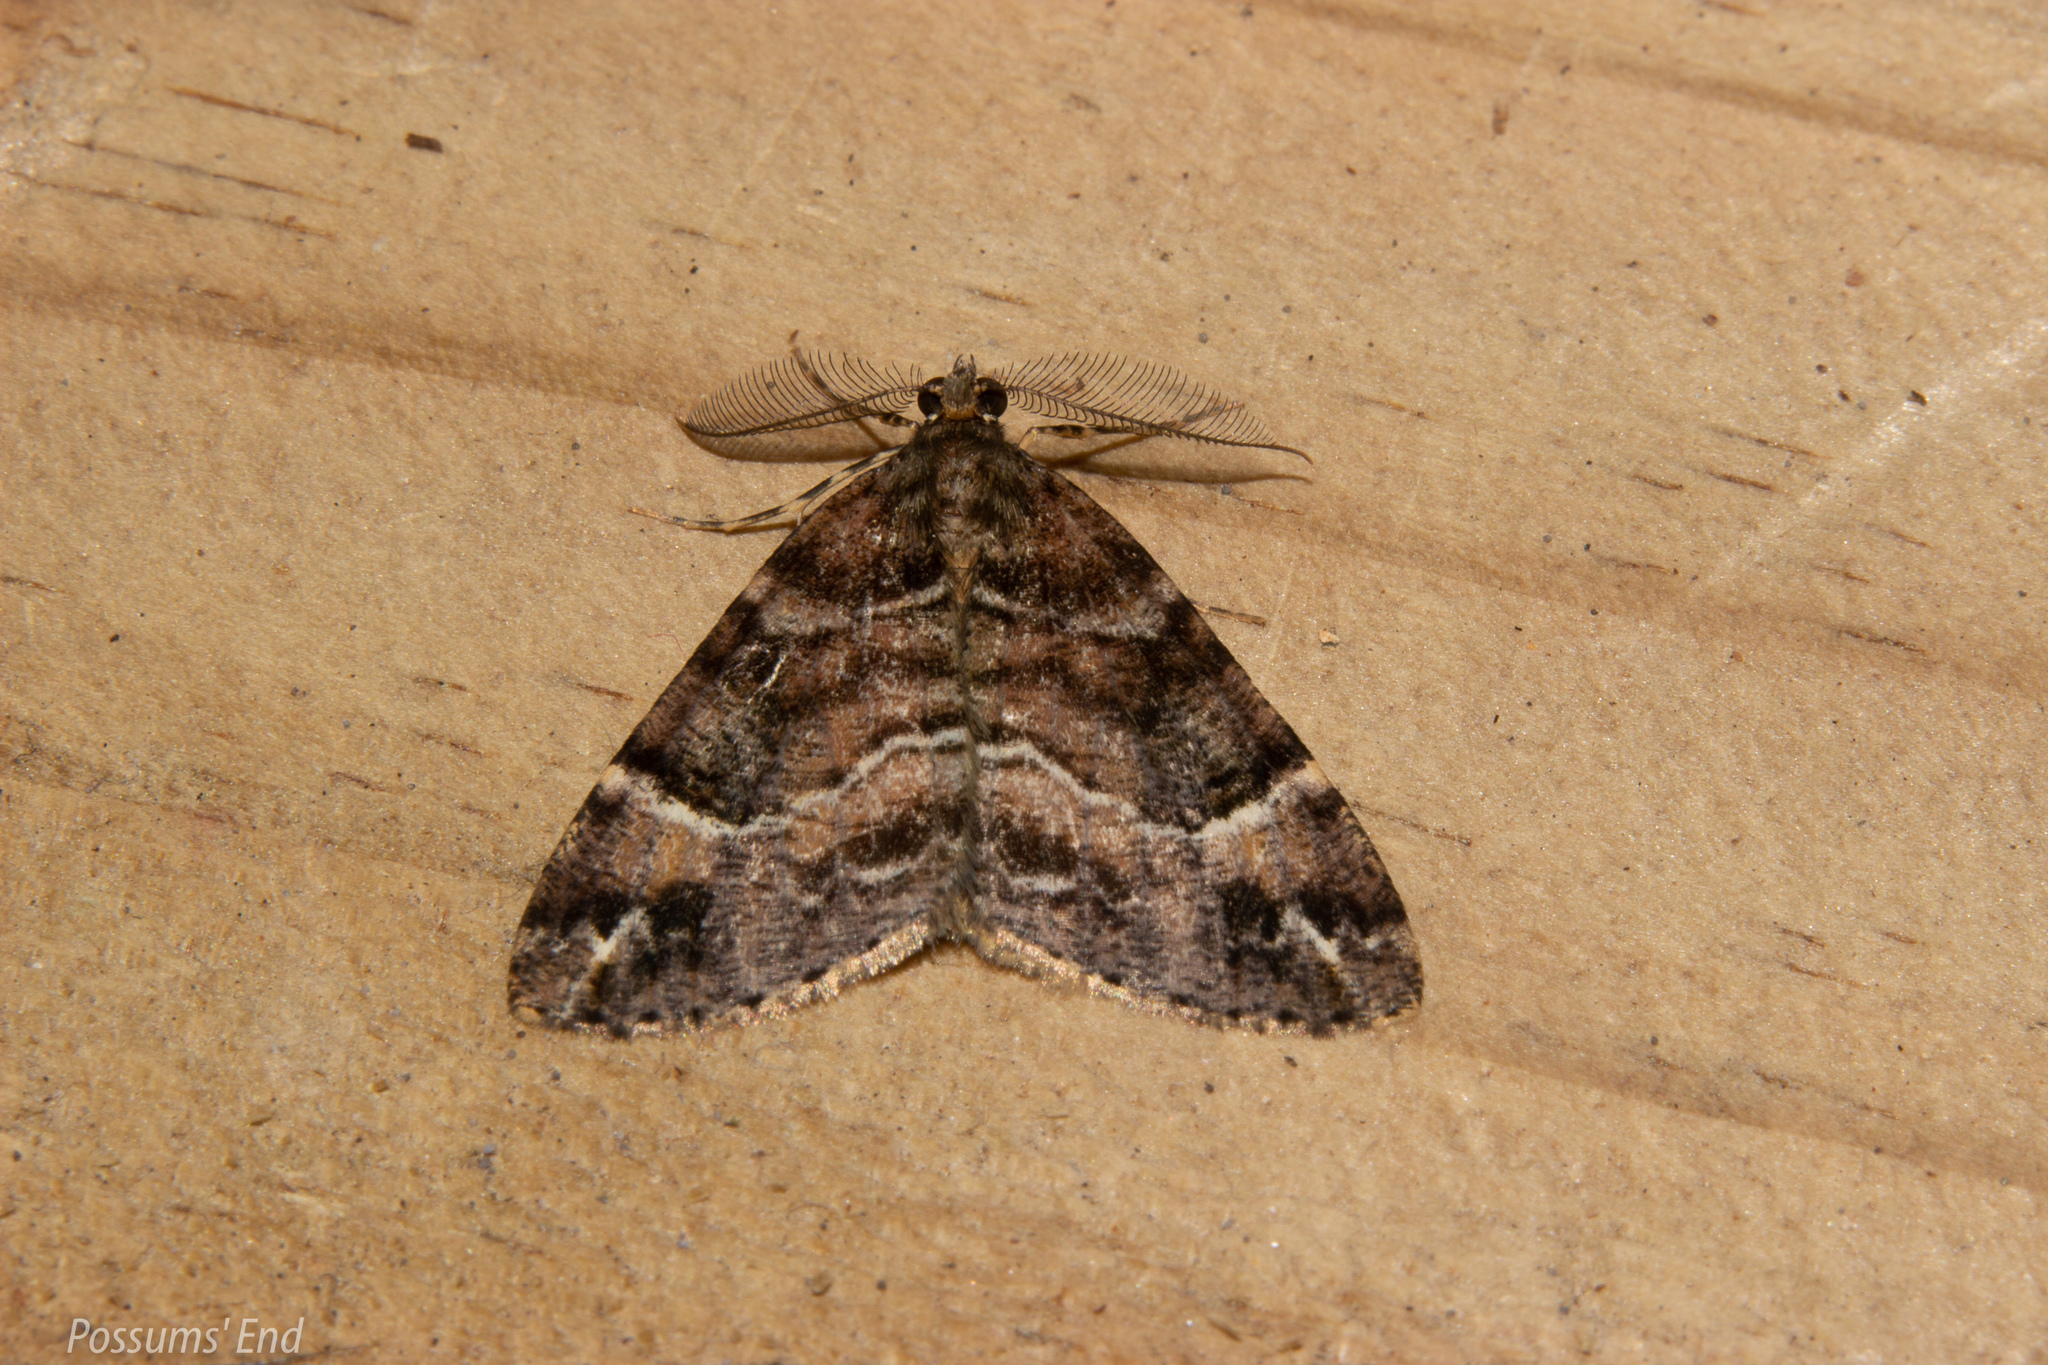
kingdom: Animalia
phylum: Arthropoda
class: Insecta
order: Lepidoptera
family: Geometridae
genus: Pseudocoremia
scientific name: Pseudocoremia productata
